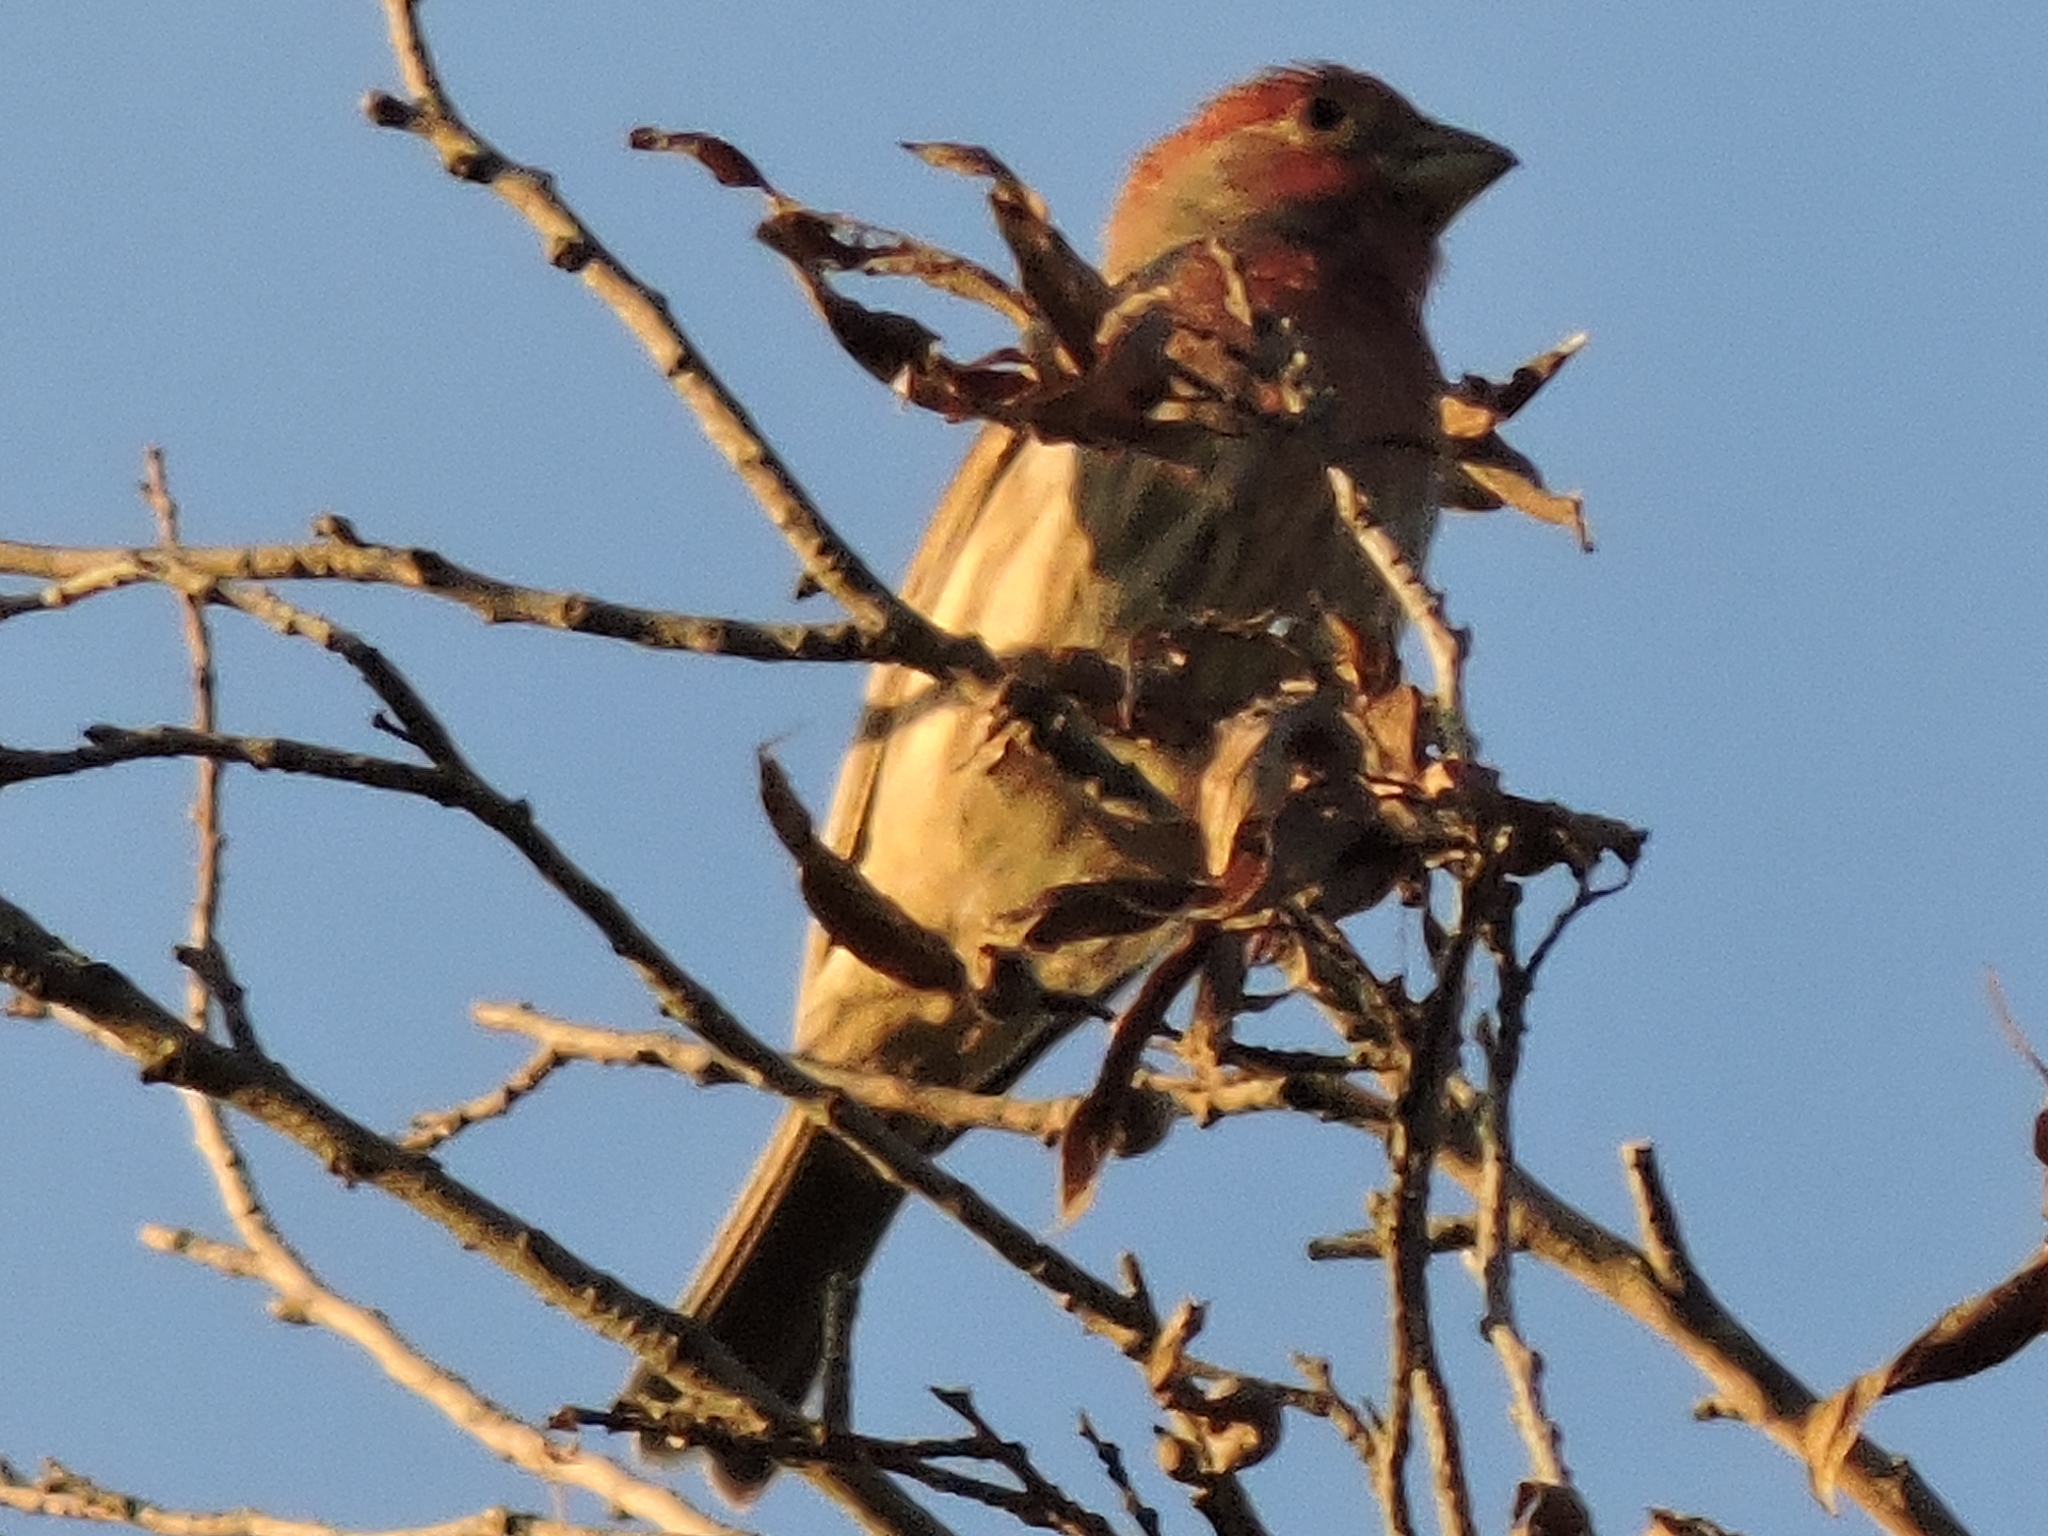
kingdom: Animalia
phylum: Chordata
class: Aves
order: Passeriformes
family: Fringillidae
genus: Haemorhous
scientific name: Haemorhous mexicanus
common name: House finch
